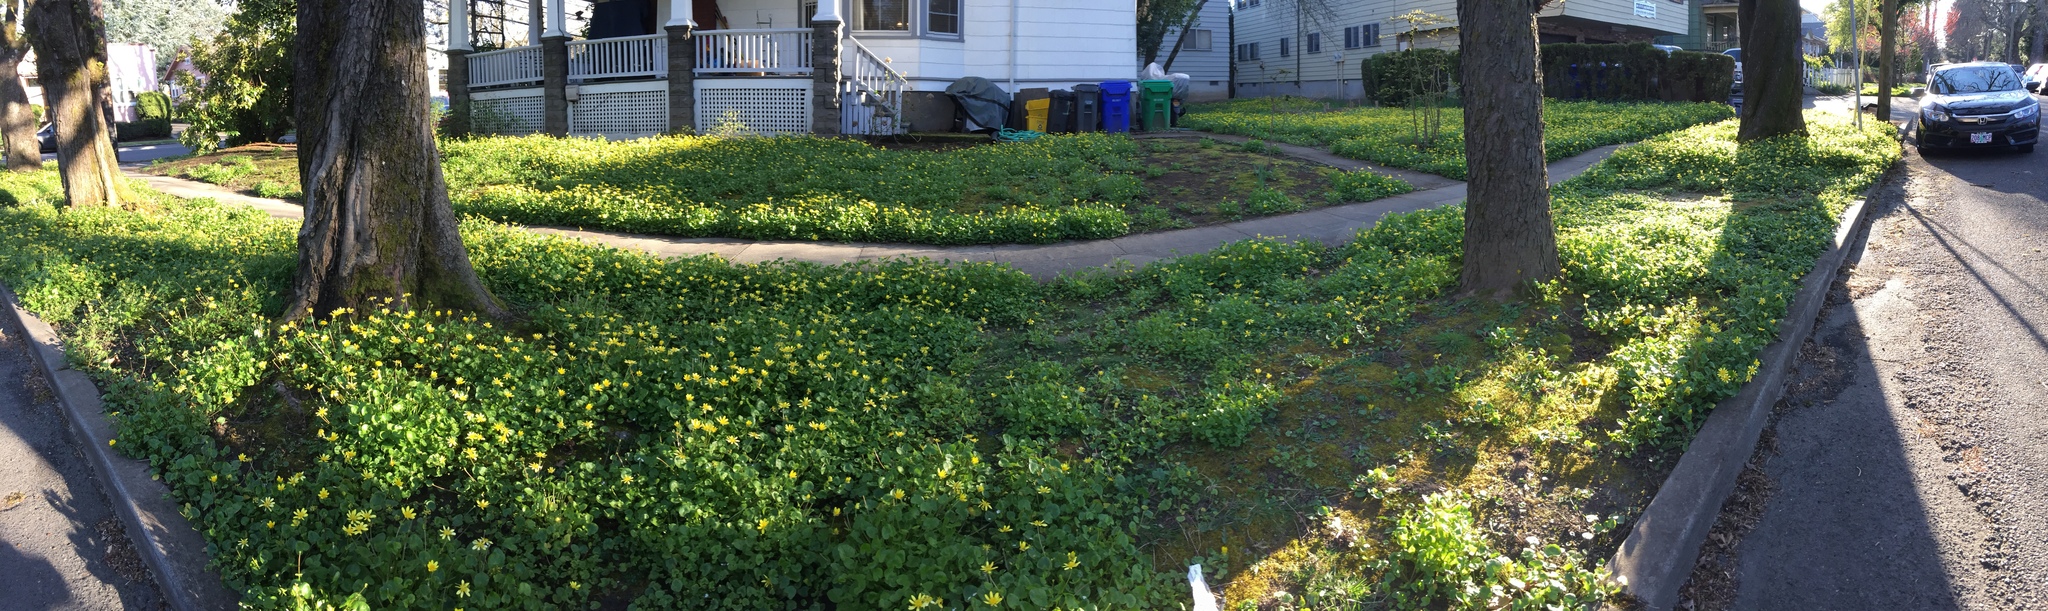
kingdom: Plantae
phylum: Tracheophyta
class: Magnoliopsida
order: Ranunculales
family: Ranunculaceae
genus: Ficaria
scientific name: Ficaria verna
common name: Lesser celandine
